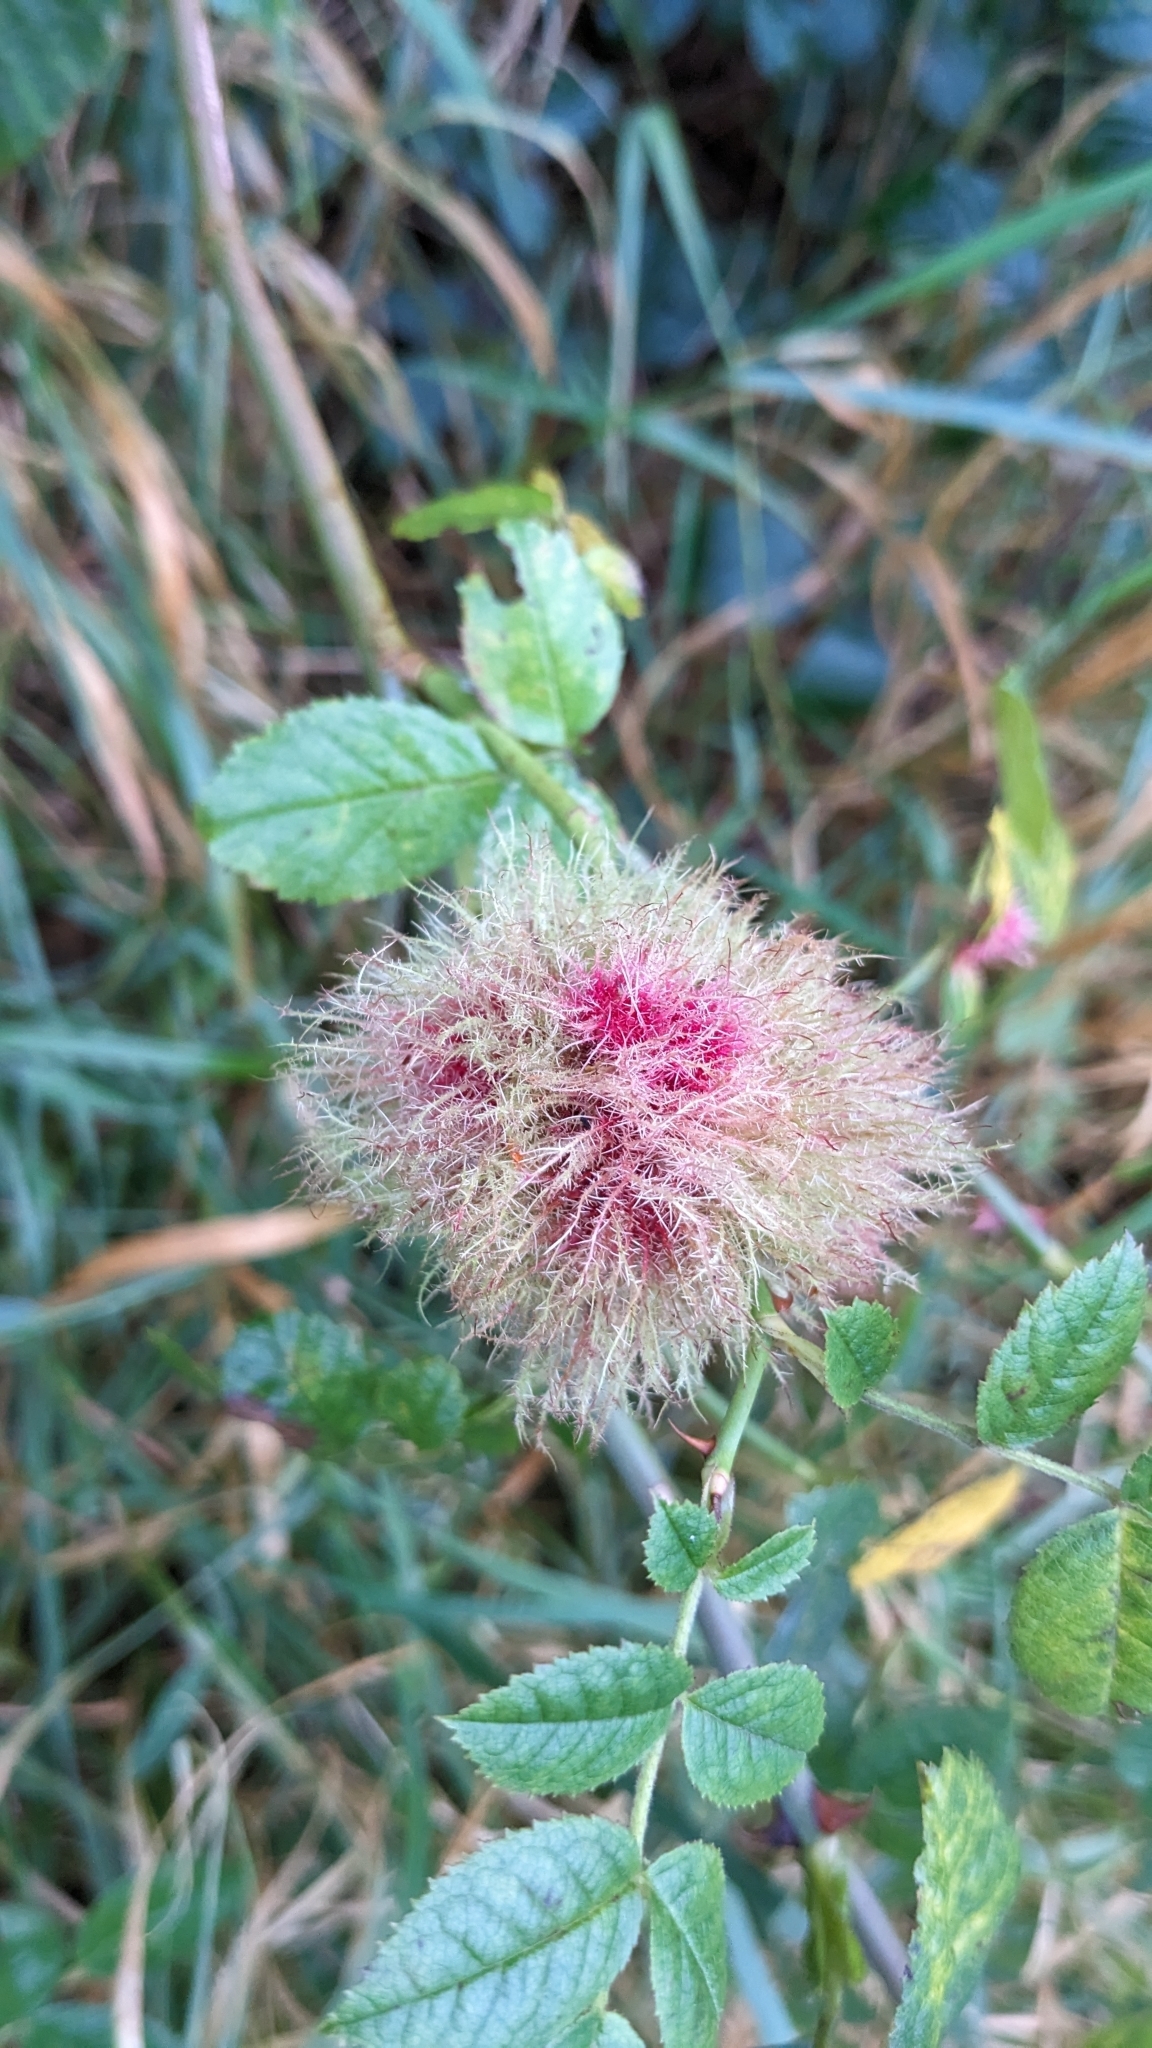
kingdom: Animalia
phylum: Arthropoda
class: Insecta
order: Hymenoptera
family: Cynipidae
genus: Diplolepis
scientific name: Diplolepis rosae
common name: Bedeguar gall
